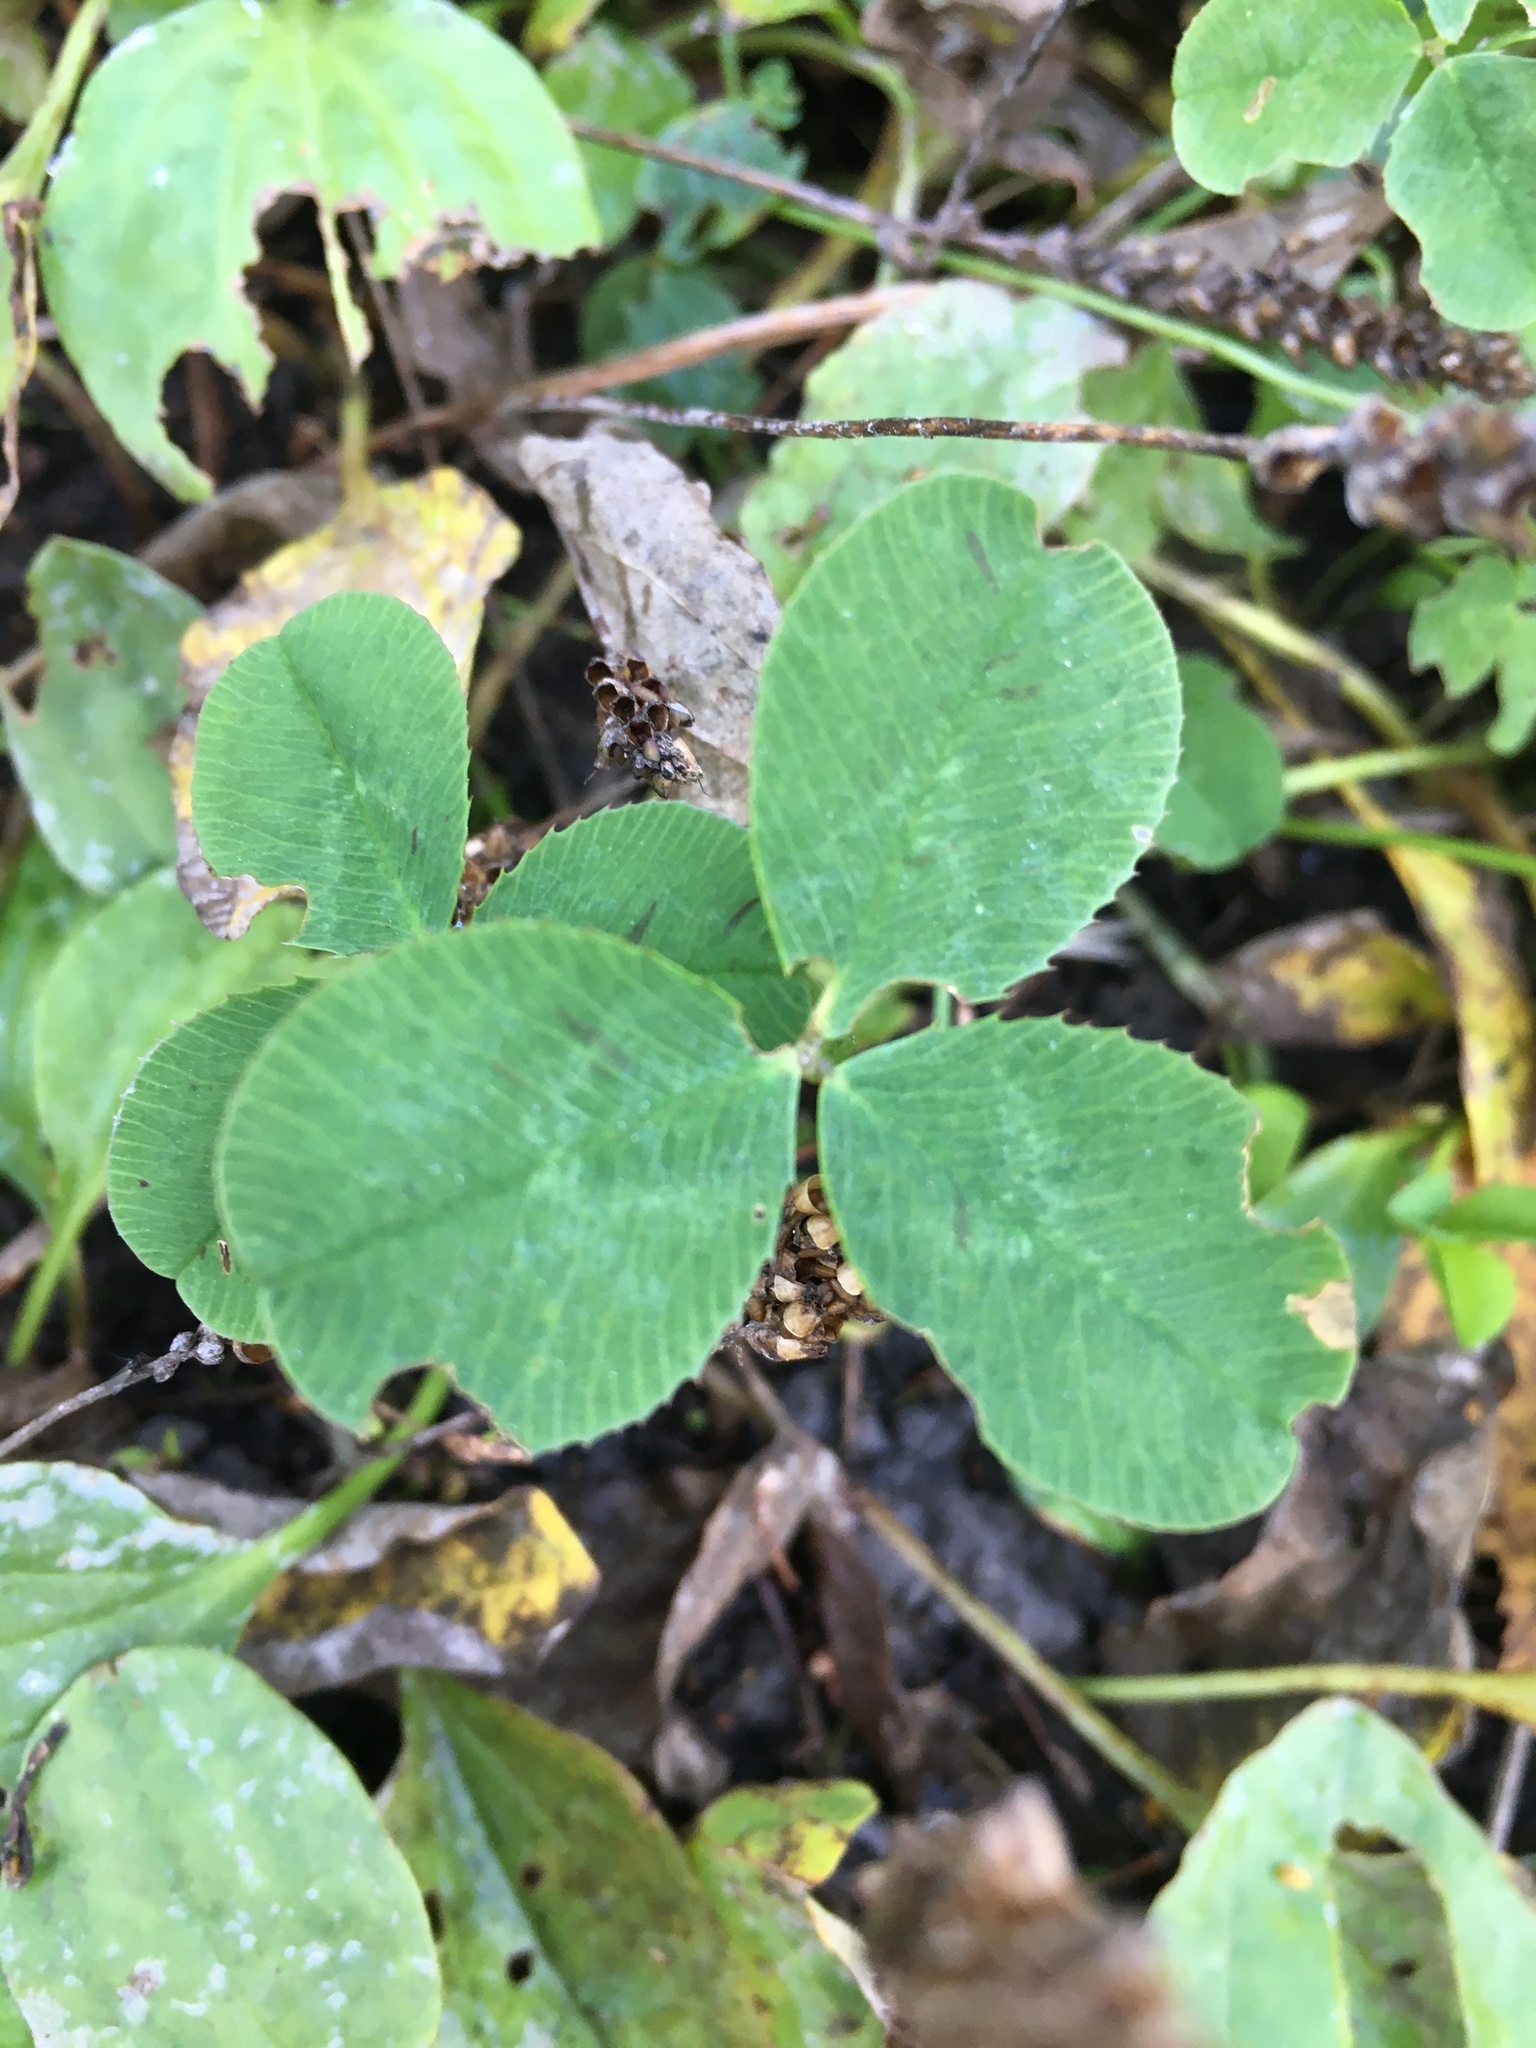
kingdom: Plantae
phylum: Tracheophyta
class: Magnoliopsida
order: Fabales
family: Fabaceae
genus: Trifolium
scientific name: Trifolium repens
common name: White clover
